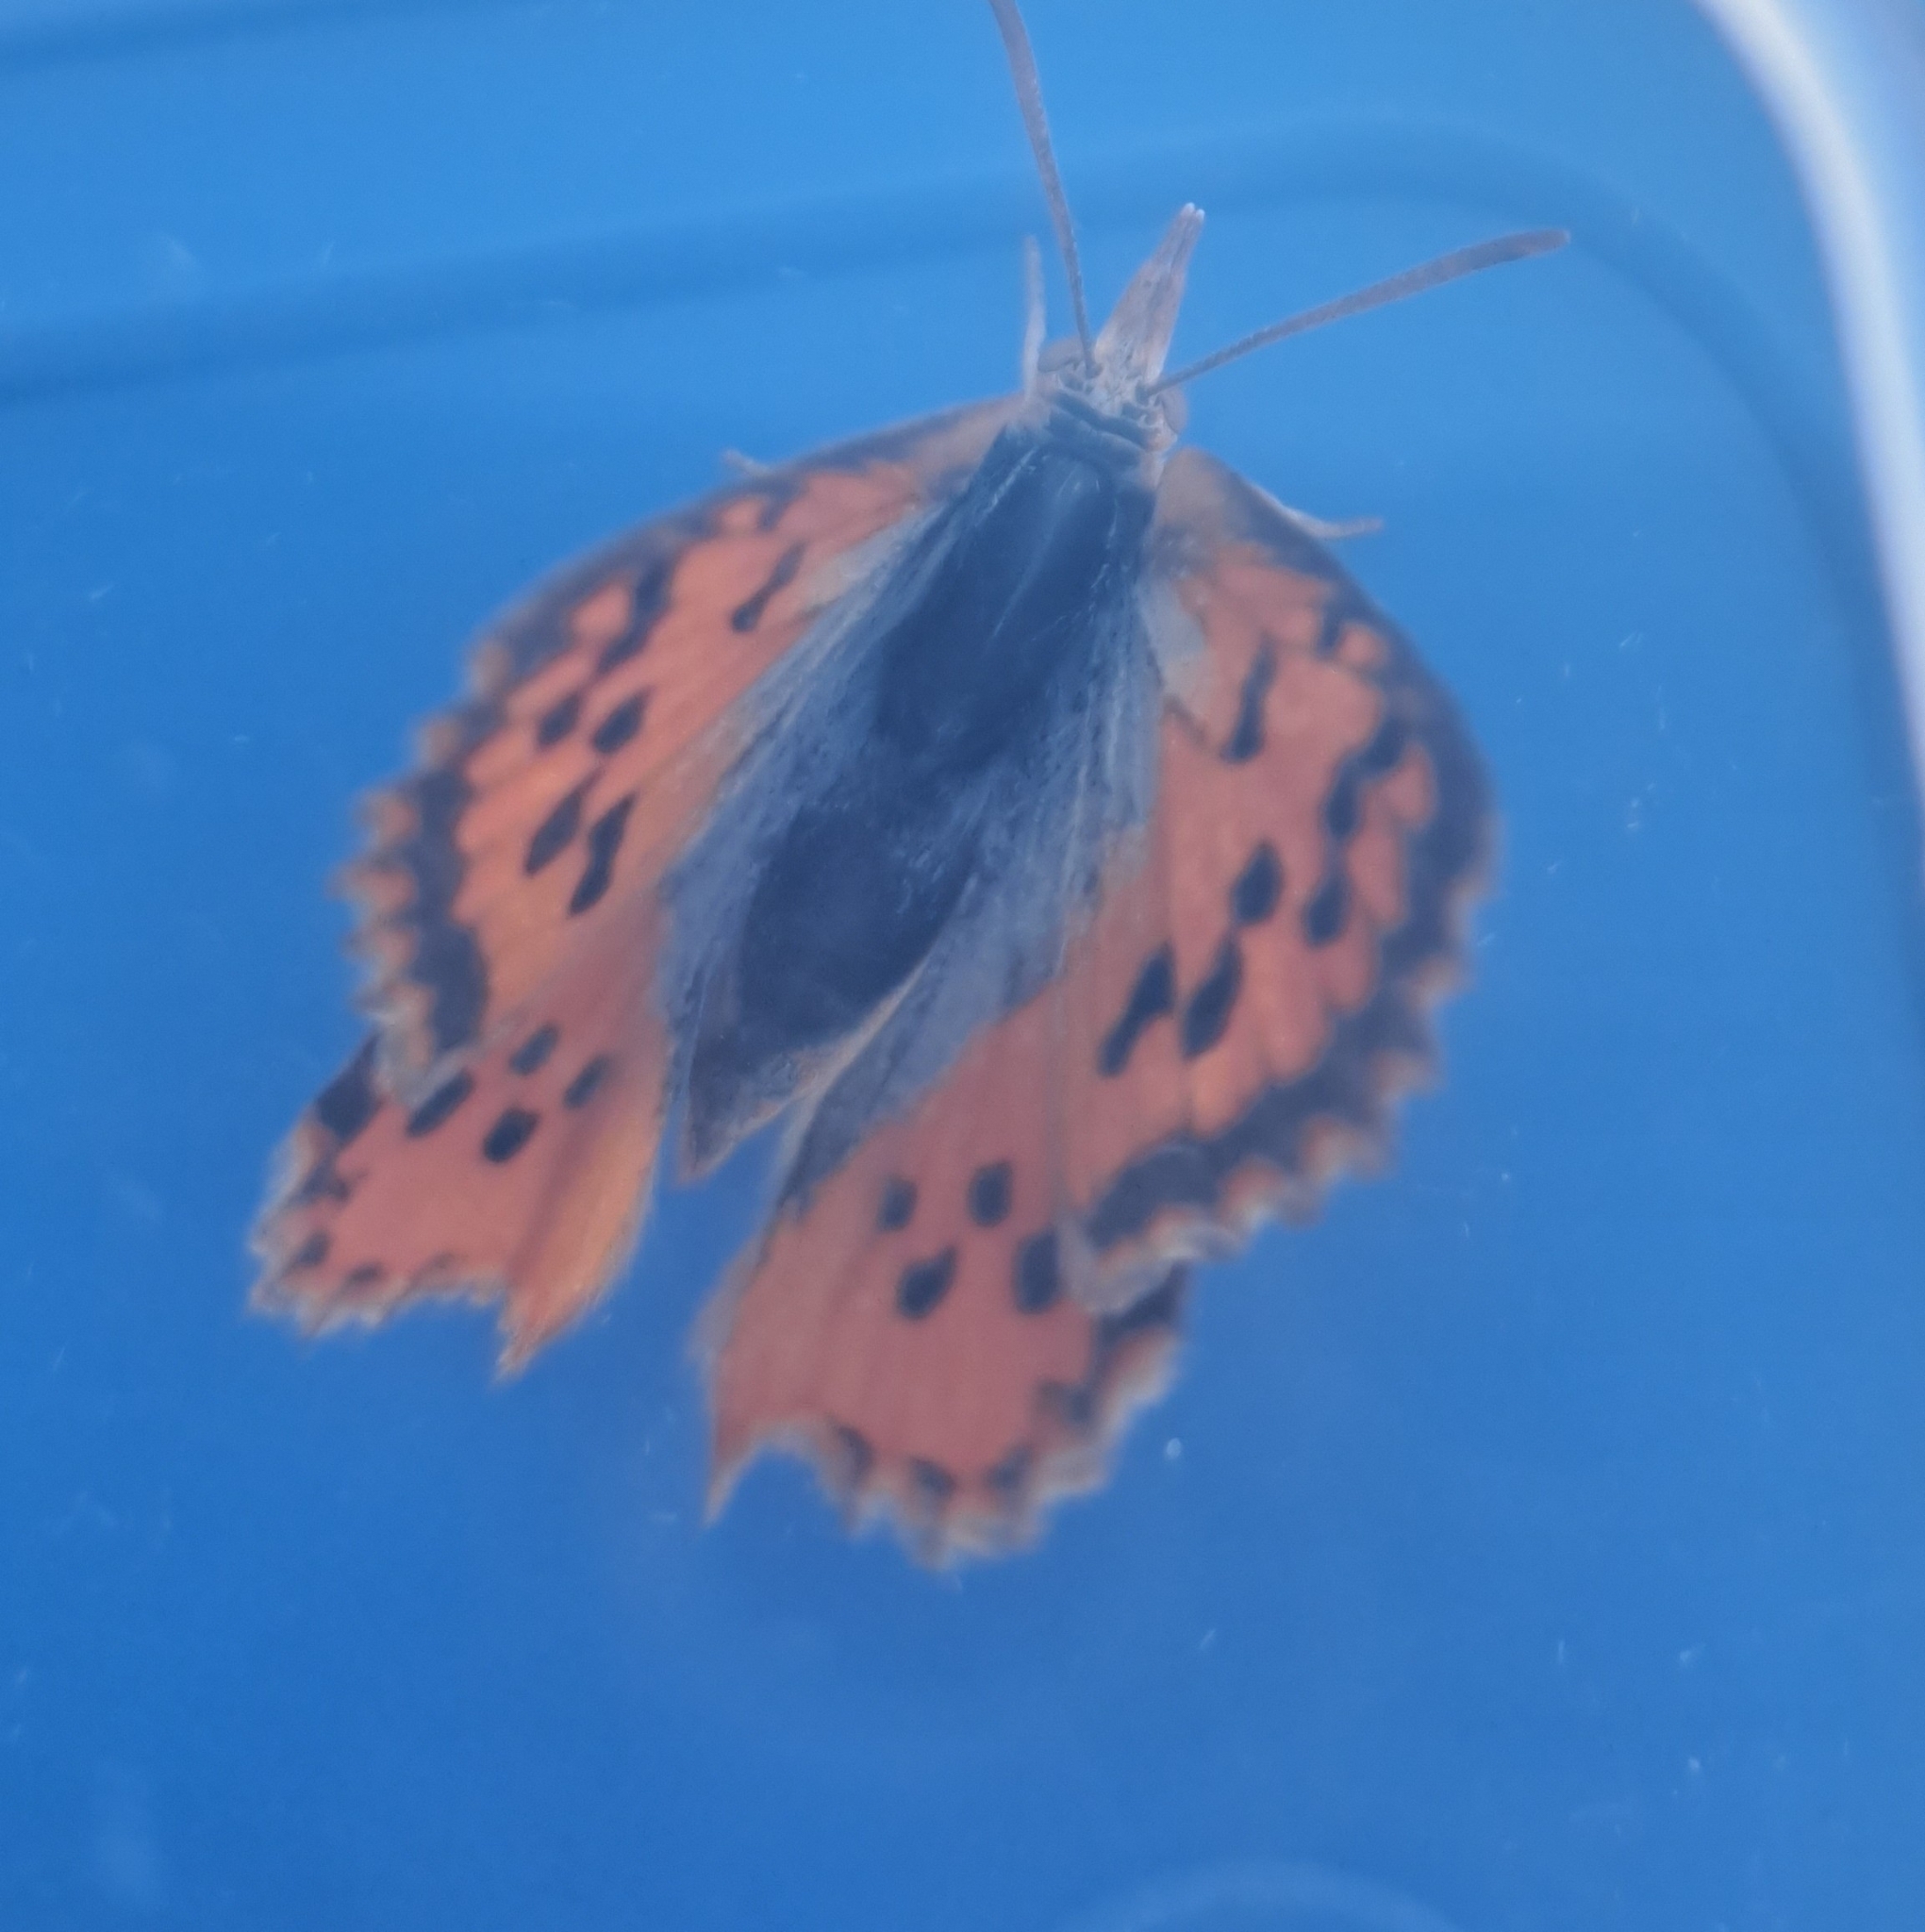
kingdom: Animalia
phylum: Arthropoda
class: Insecta
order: Lepidoptera
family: Lycaenidae
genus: Chrysoritis
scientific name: Chrysoritis thysbe
